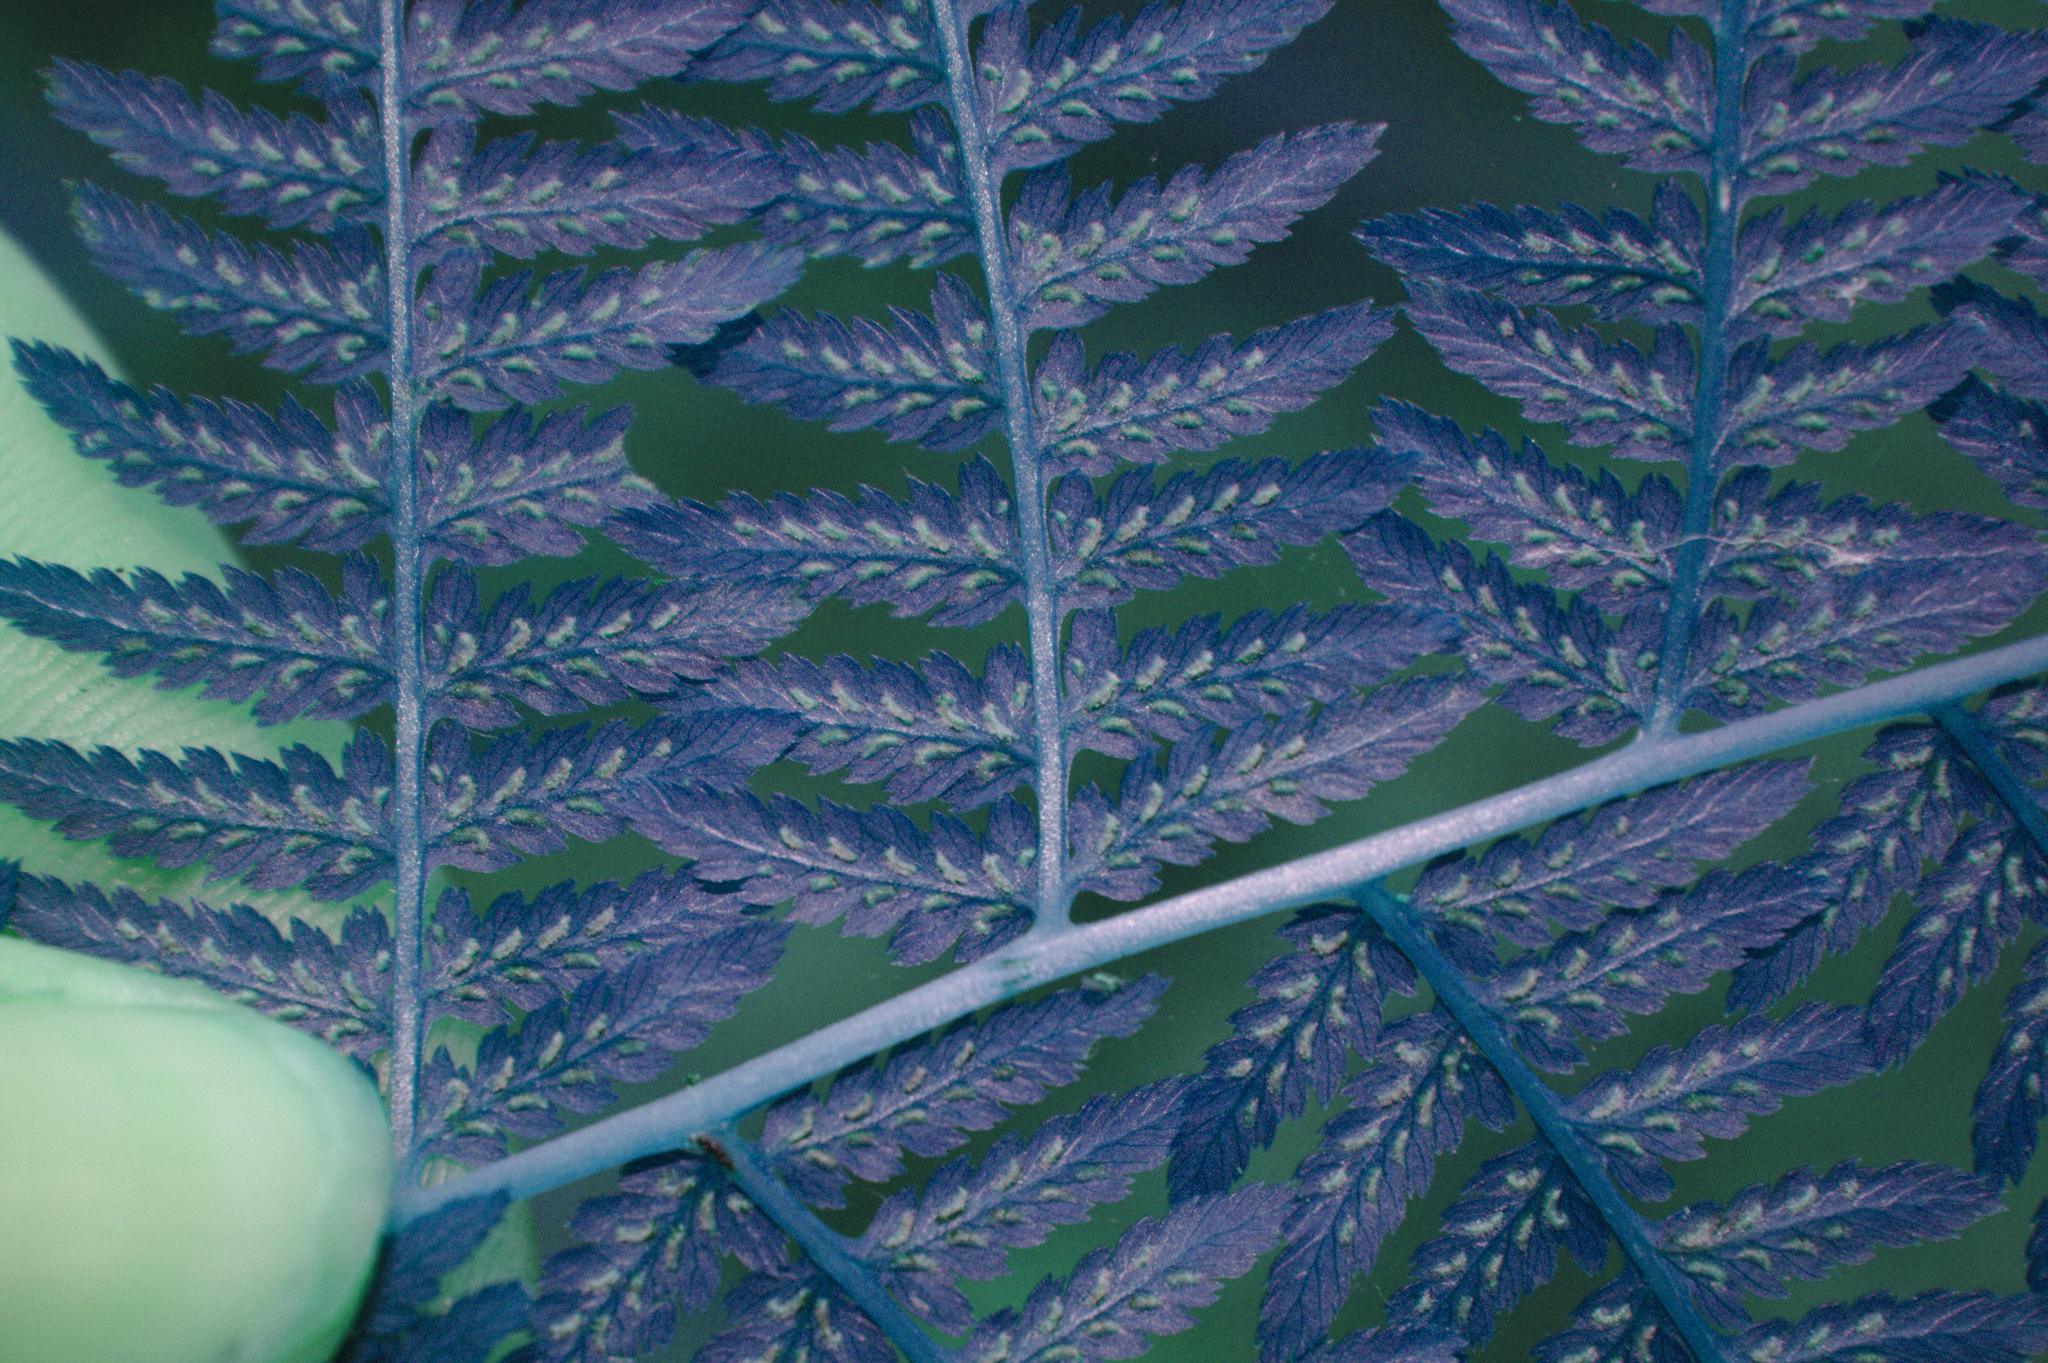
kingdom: Plantae
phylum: Tracheophyta
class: Polypodiopsida
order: Polypodiales
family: Athyriaceae
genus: Athyrium
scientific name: Athyrium angustum
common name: Northern lady fern
